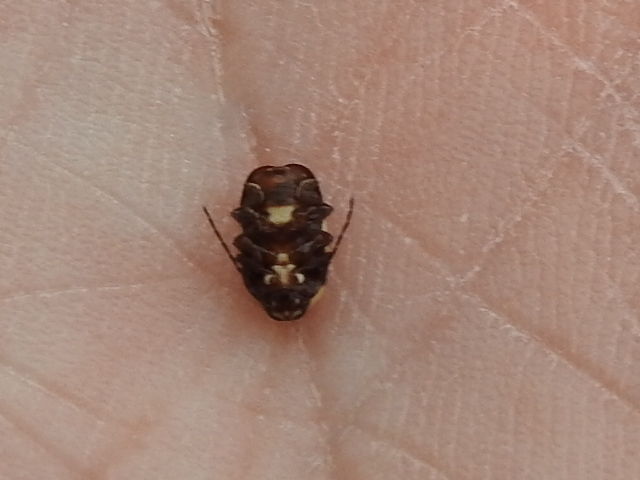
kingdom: Animalia
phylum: Arthropoda
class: Insecta
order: Coleoptera
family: Chrysomelidae
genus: Cryptocephalus
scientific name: Cryptocephalus irroratus
